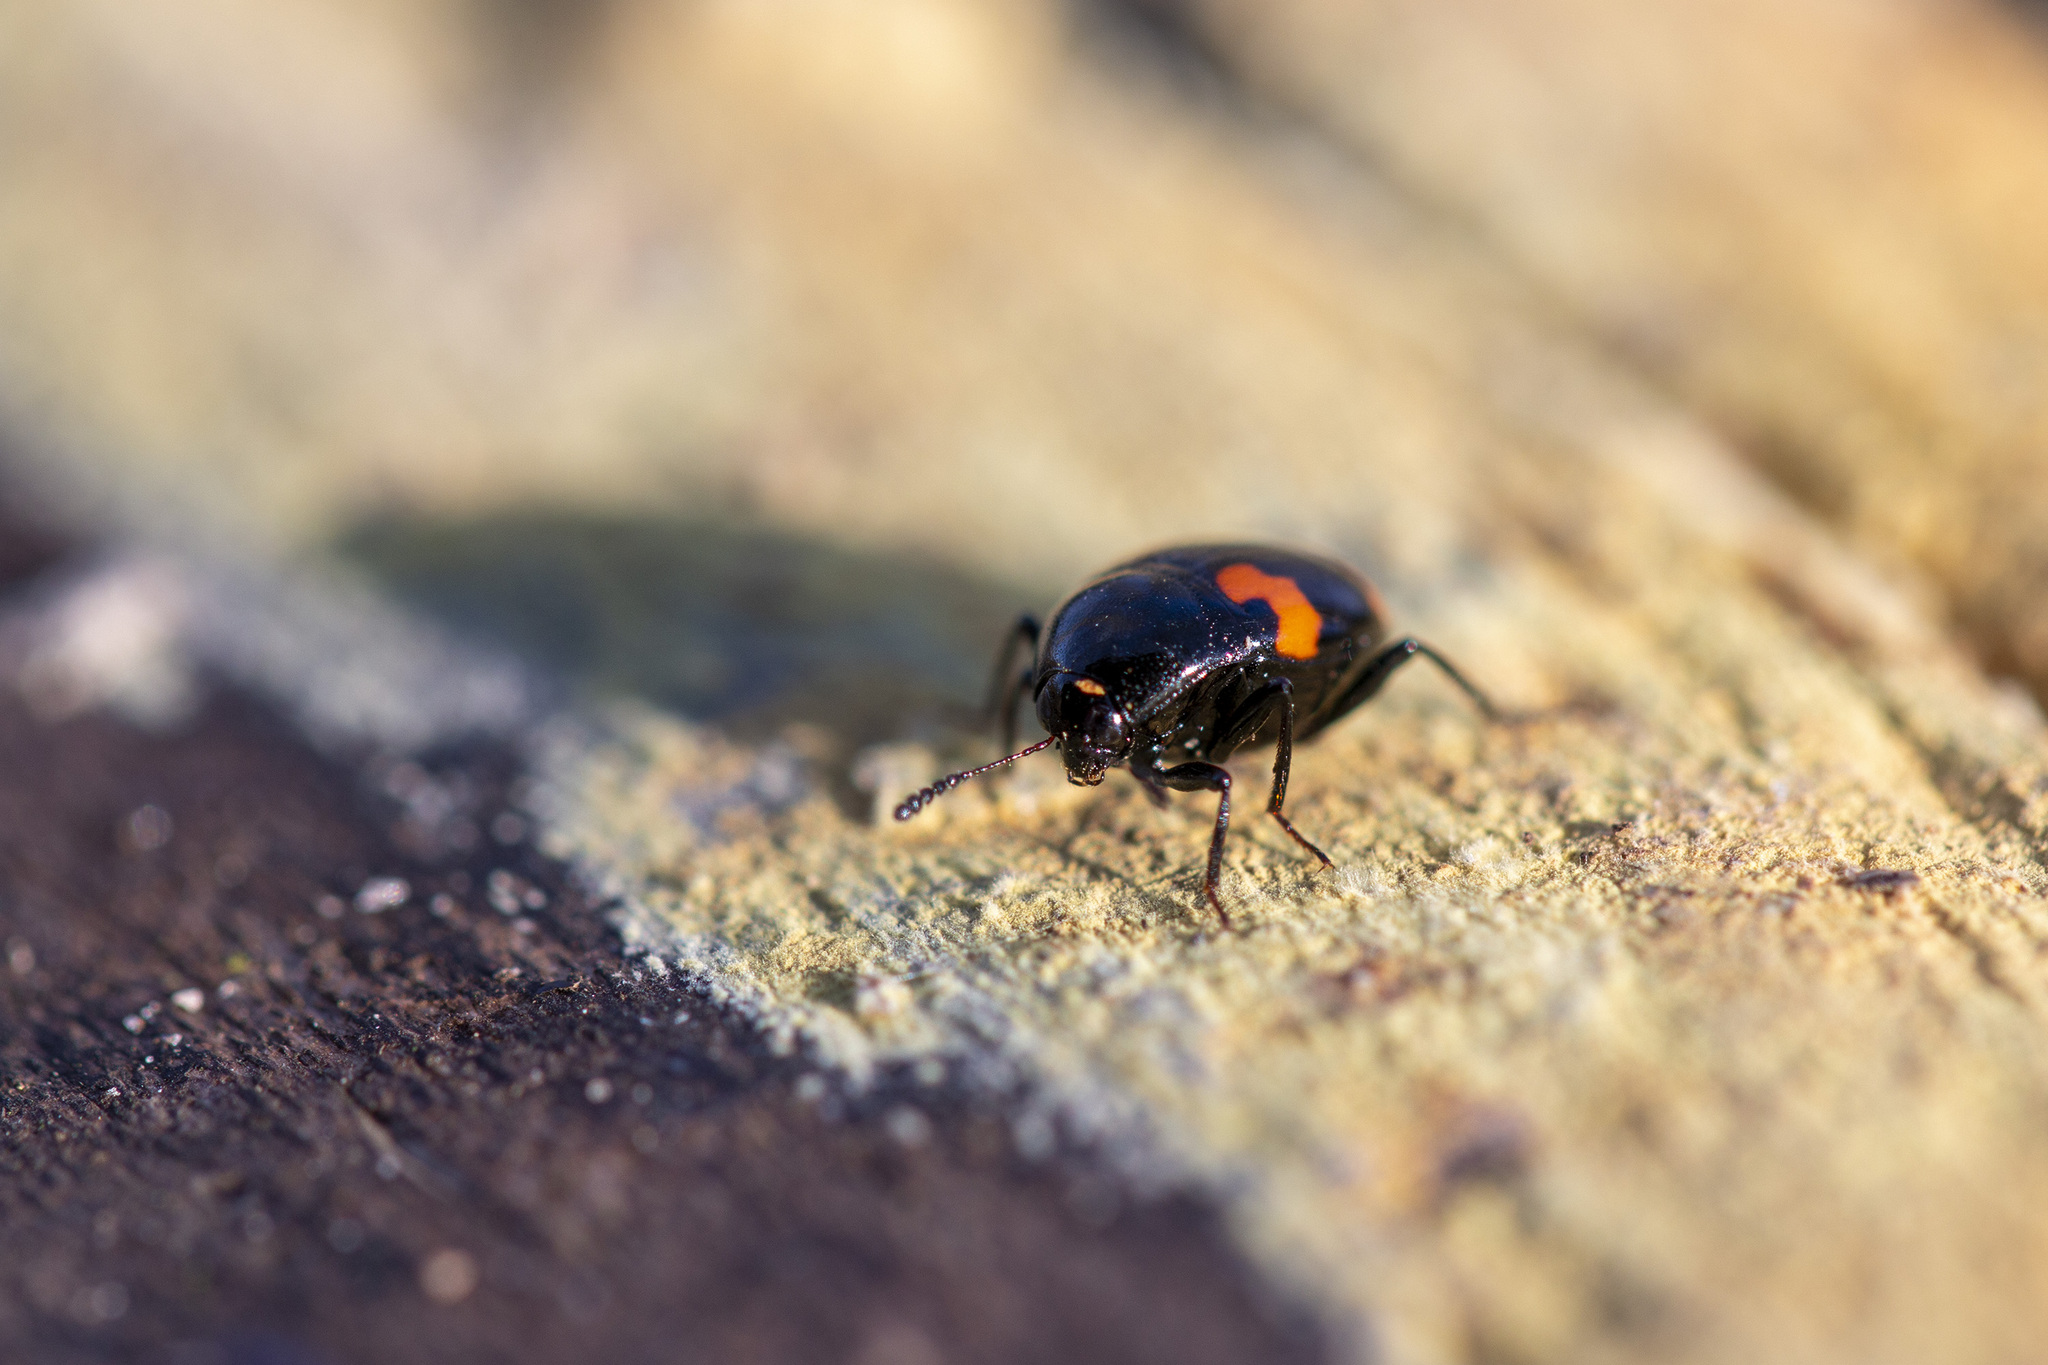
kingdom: Animalia
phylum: Arthropoda
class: Insecta
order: Coleoptera
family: Staphylinidae
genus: Scaphidium
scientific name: Scaphidium quadrimaculatum
